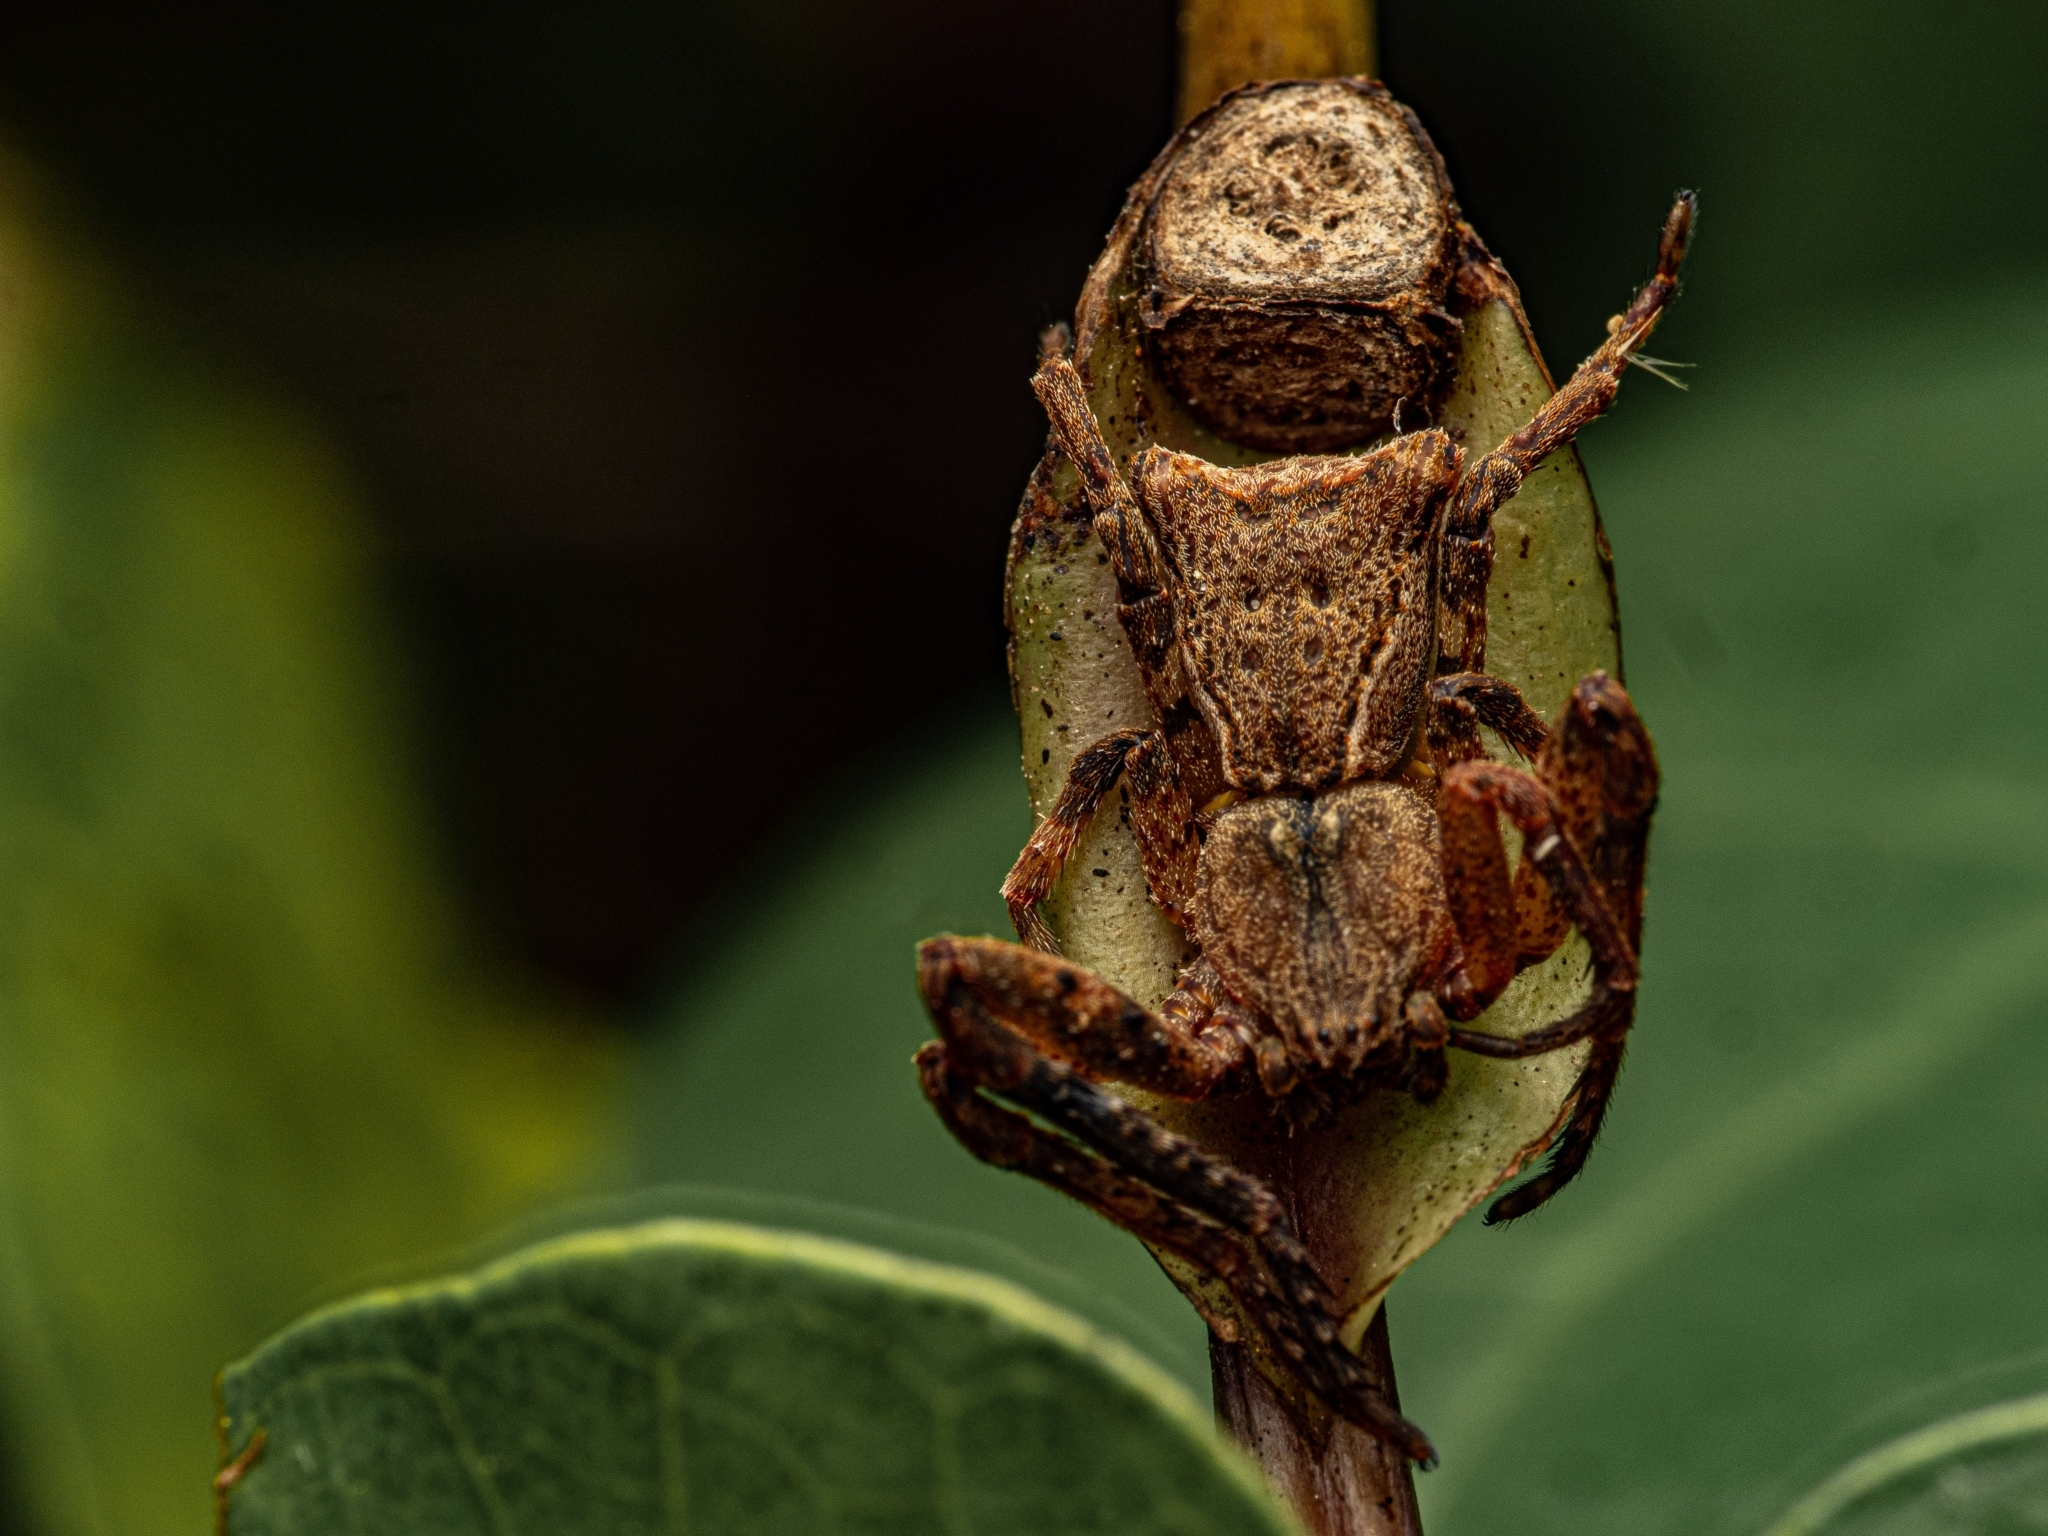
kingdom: Animalia
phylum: Arthropoda
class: Arachnida
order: Araneae
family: Thomisidae
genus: Sidymella
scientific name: Sidymella angularis
